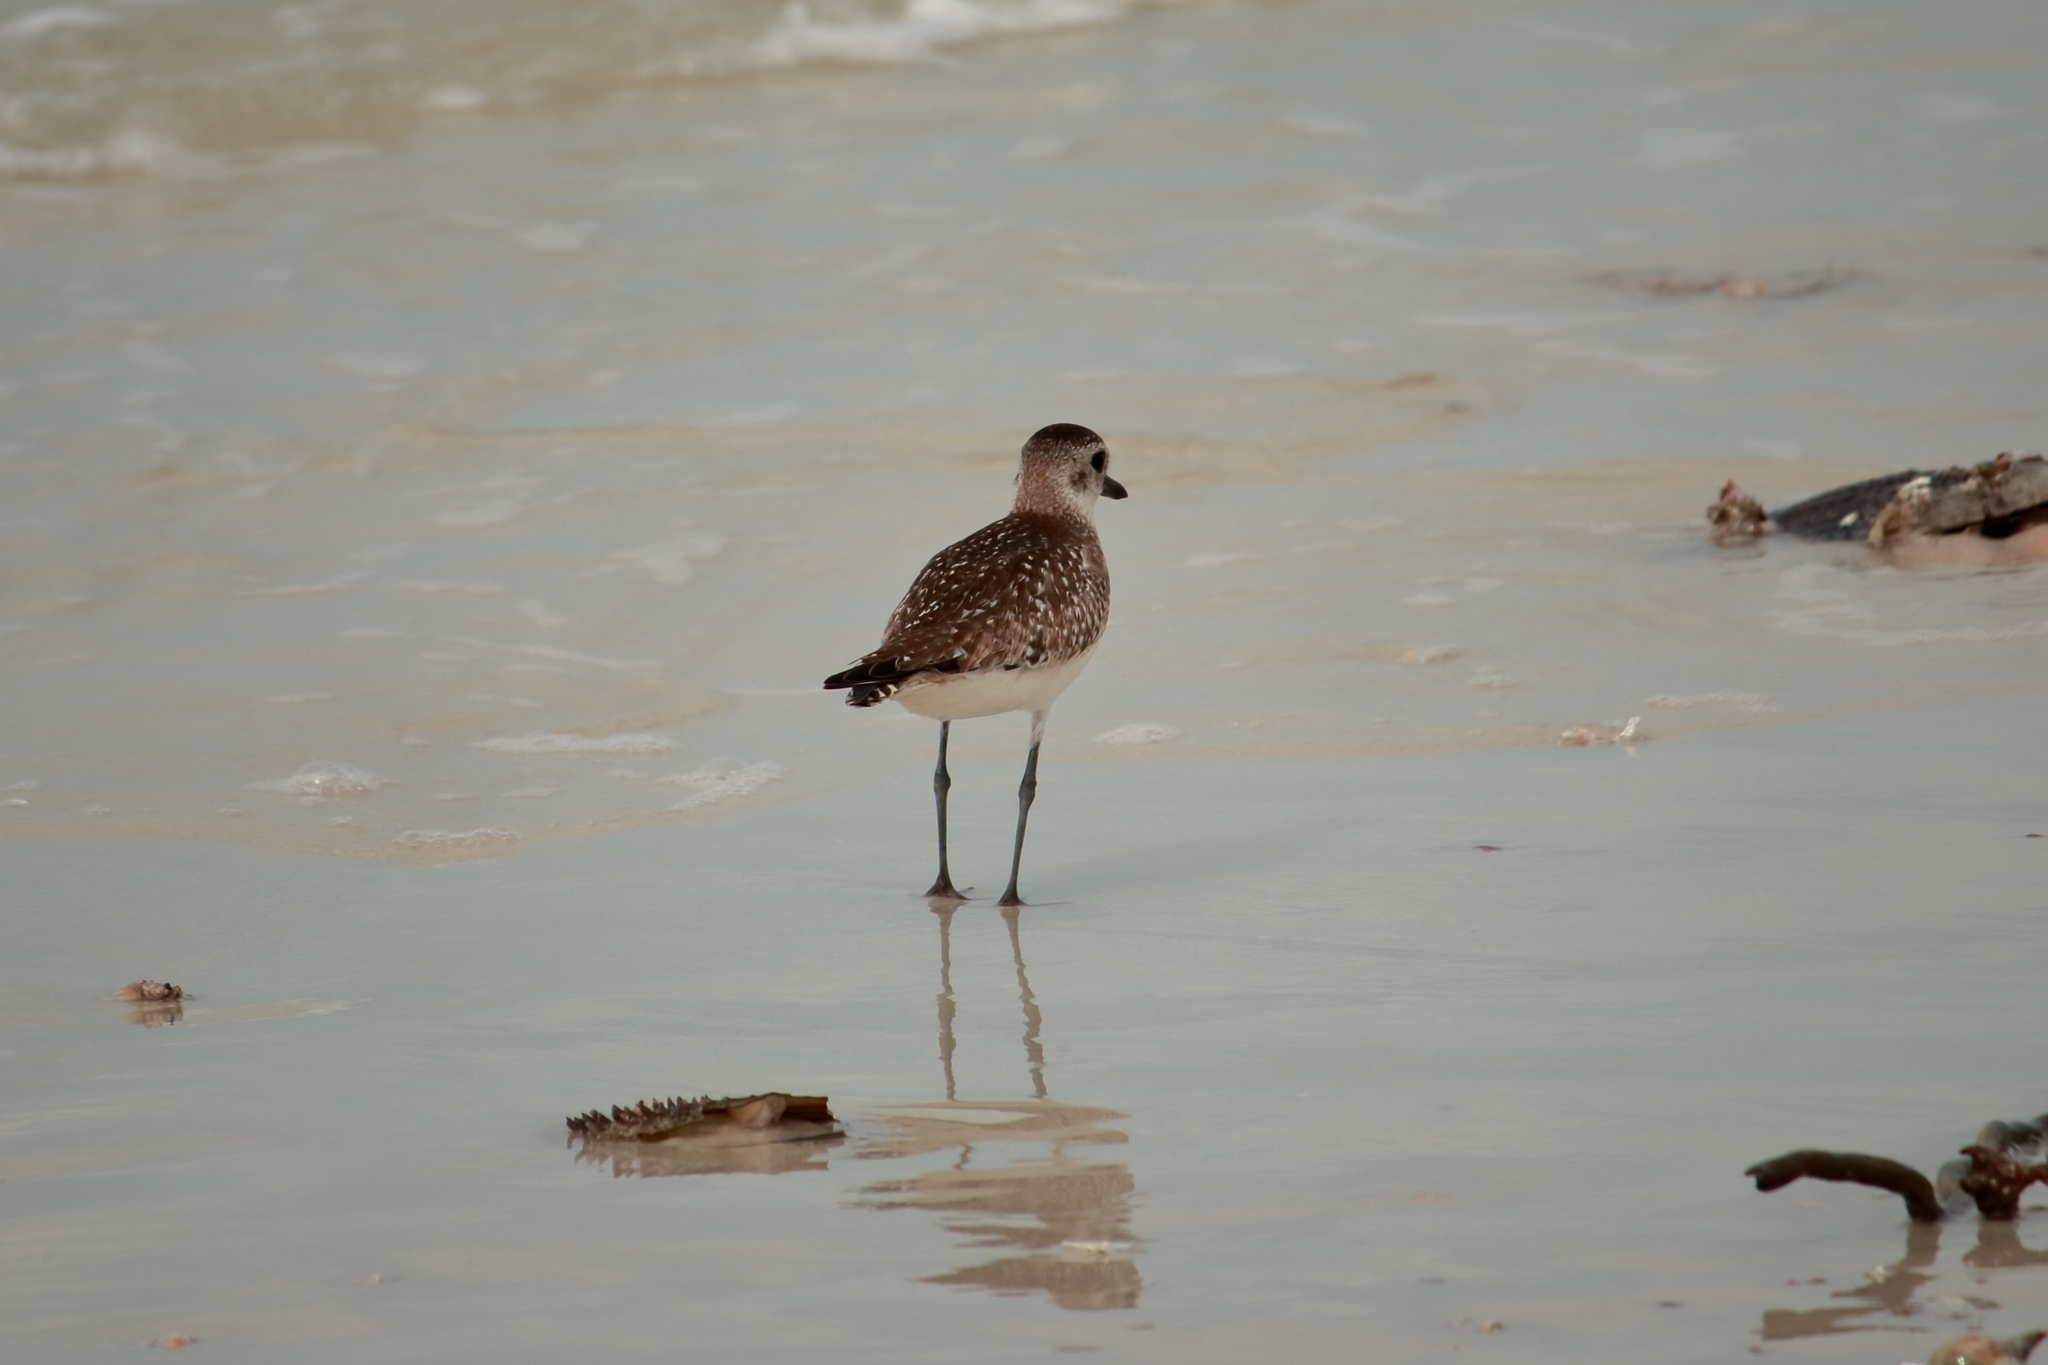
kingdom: Animalia
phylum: Chordata
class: Aves
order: Charadriiformes
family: Charadriidae
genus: Pluvialis
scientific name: Pluvialis squatarola
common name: Grey plover
